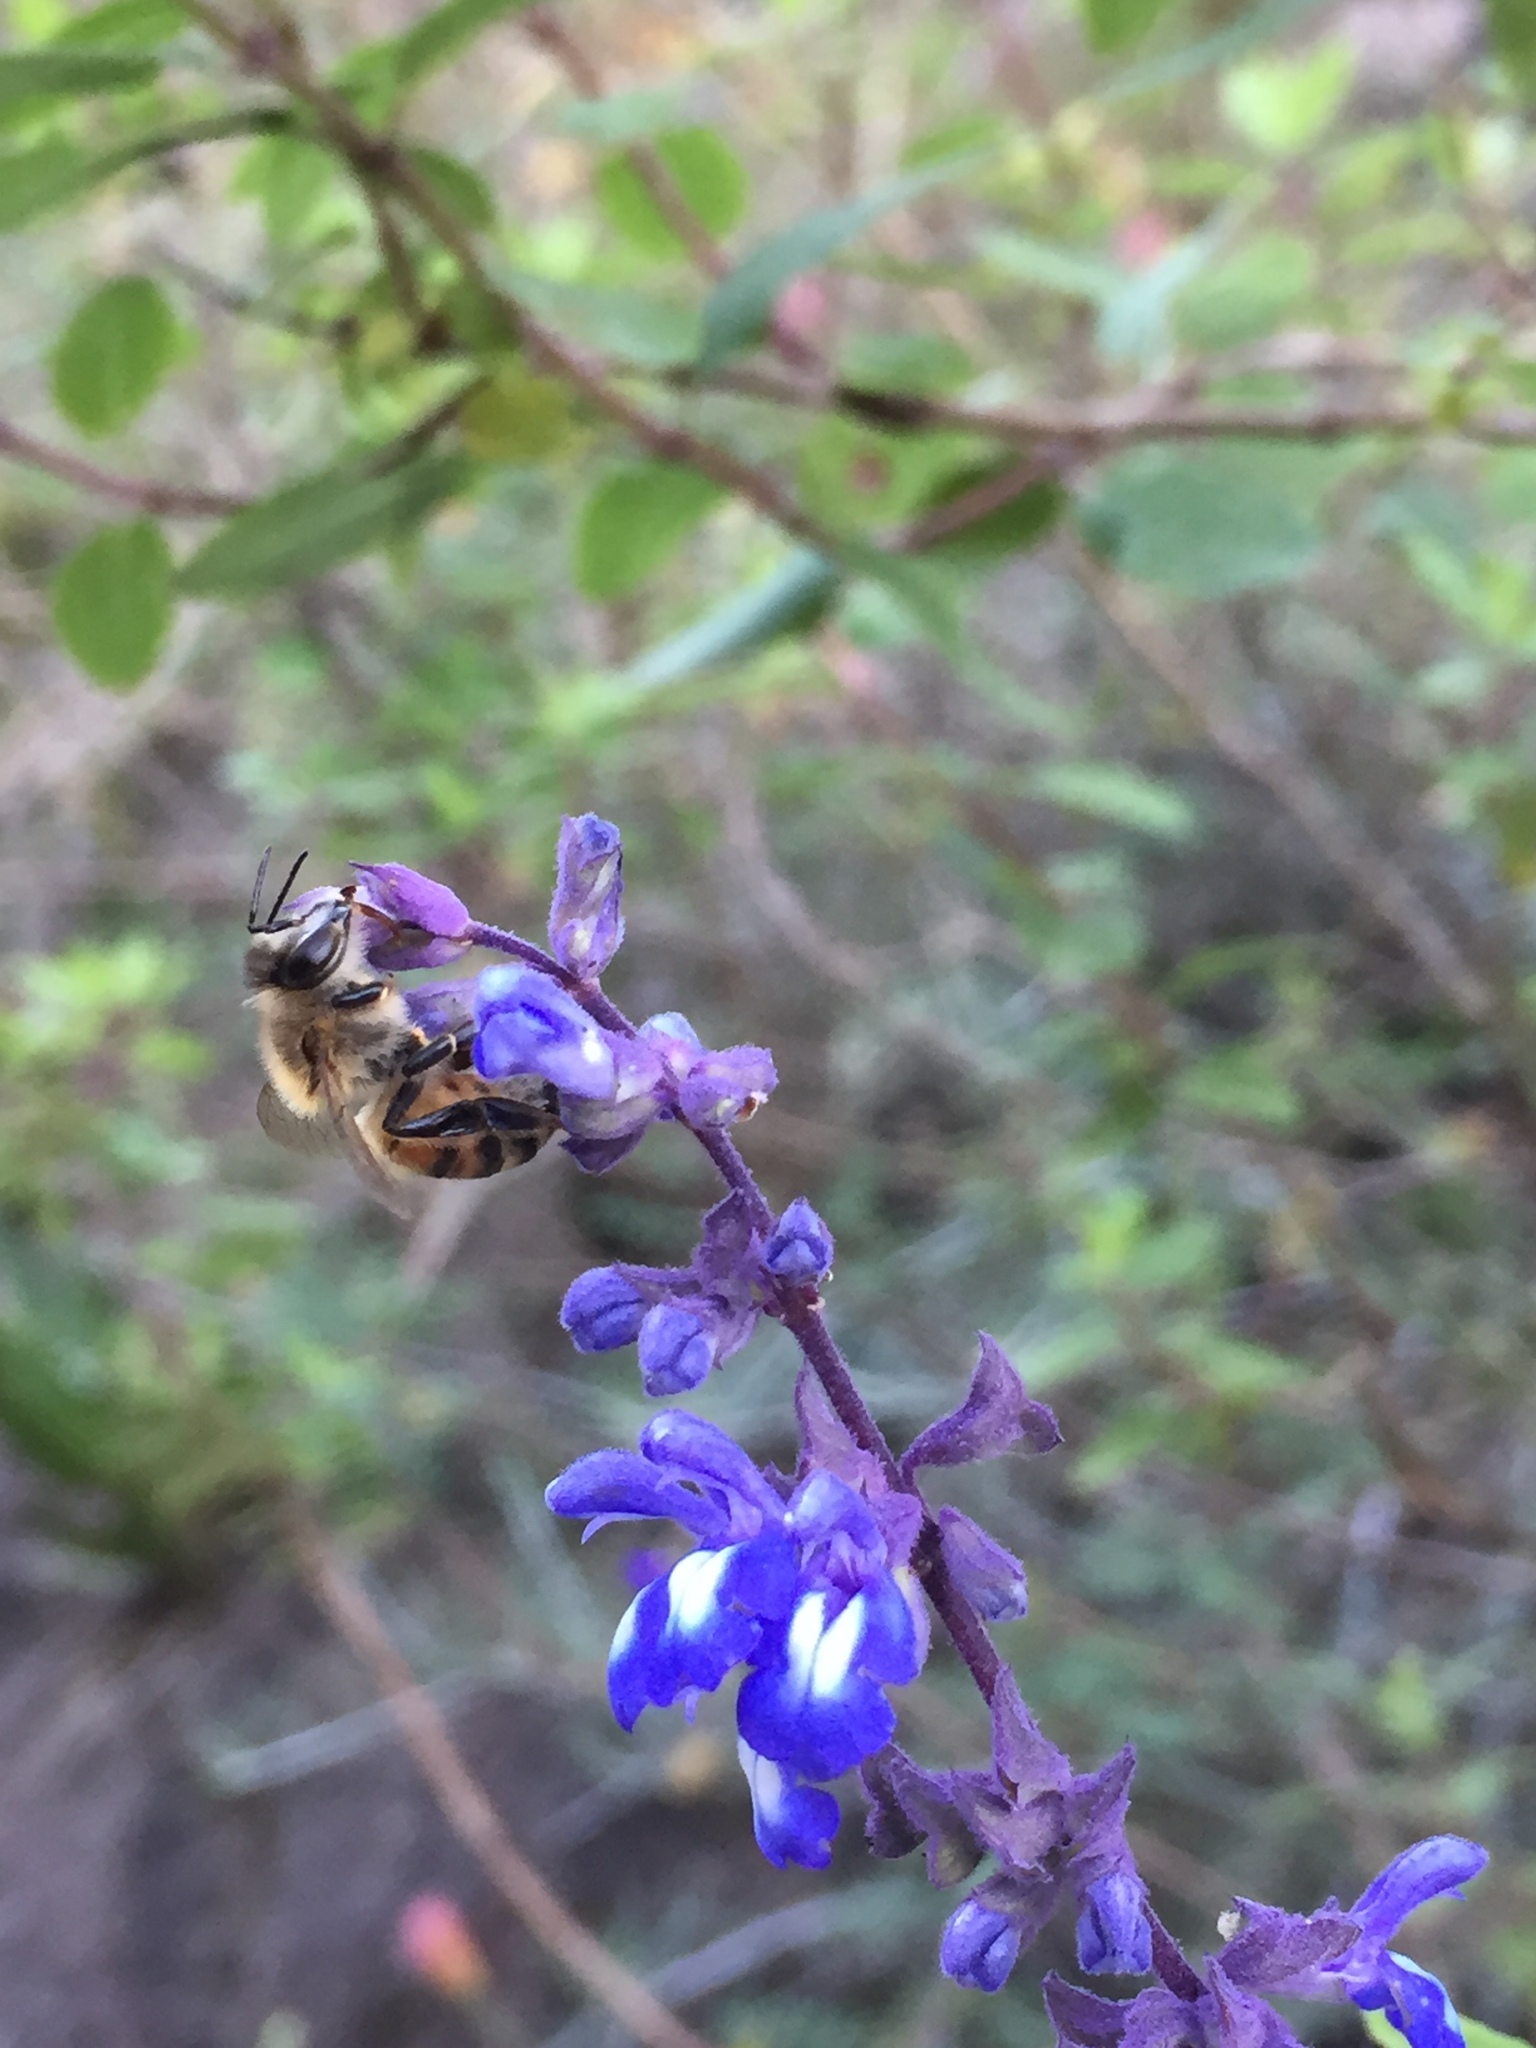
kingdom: Animalia
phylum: Arthropoda
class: Insecta
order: Hymenoptera
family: Apidae
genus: Apis
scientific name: Apis mellifera
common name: Honey bee
